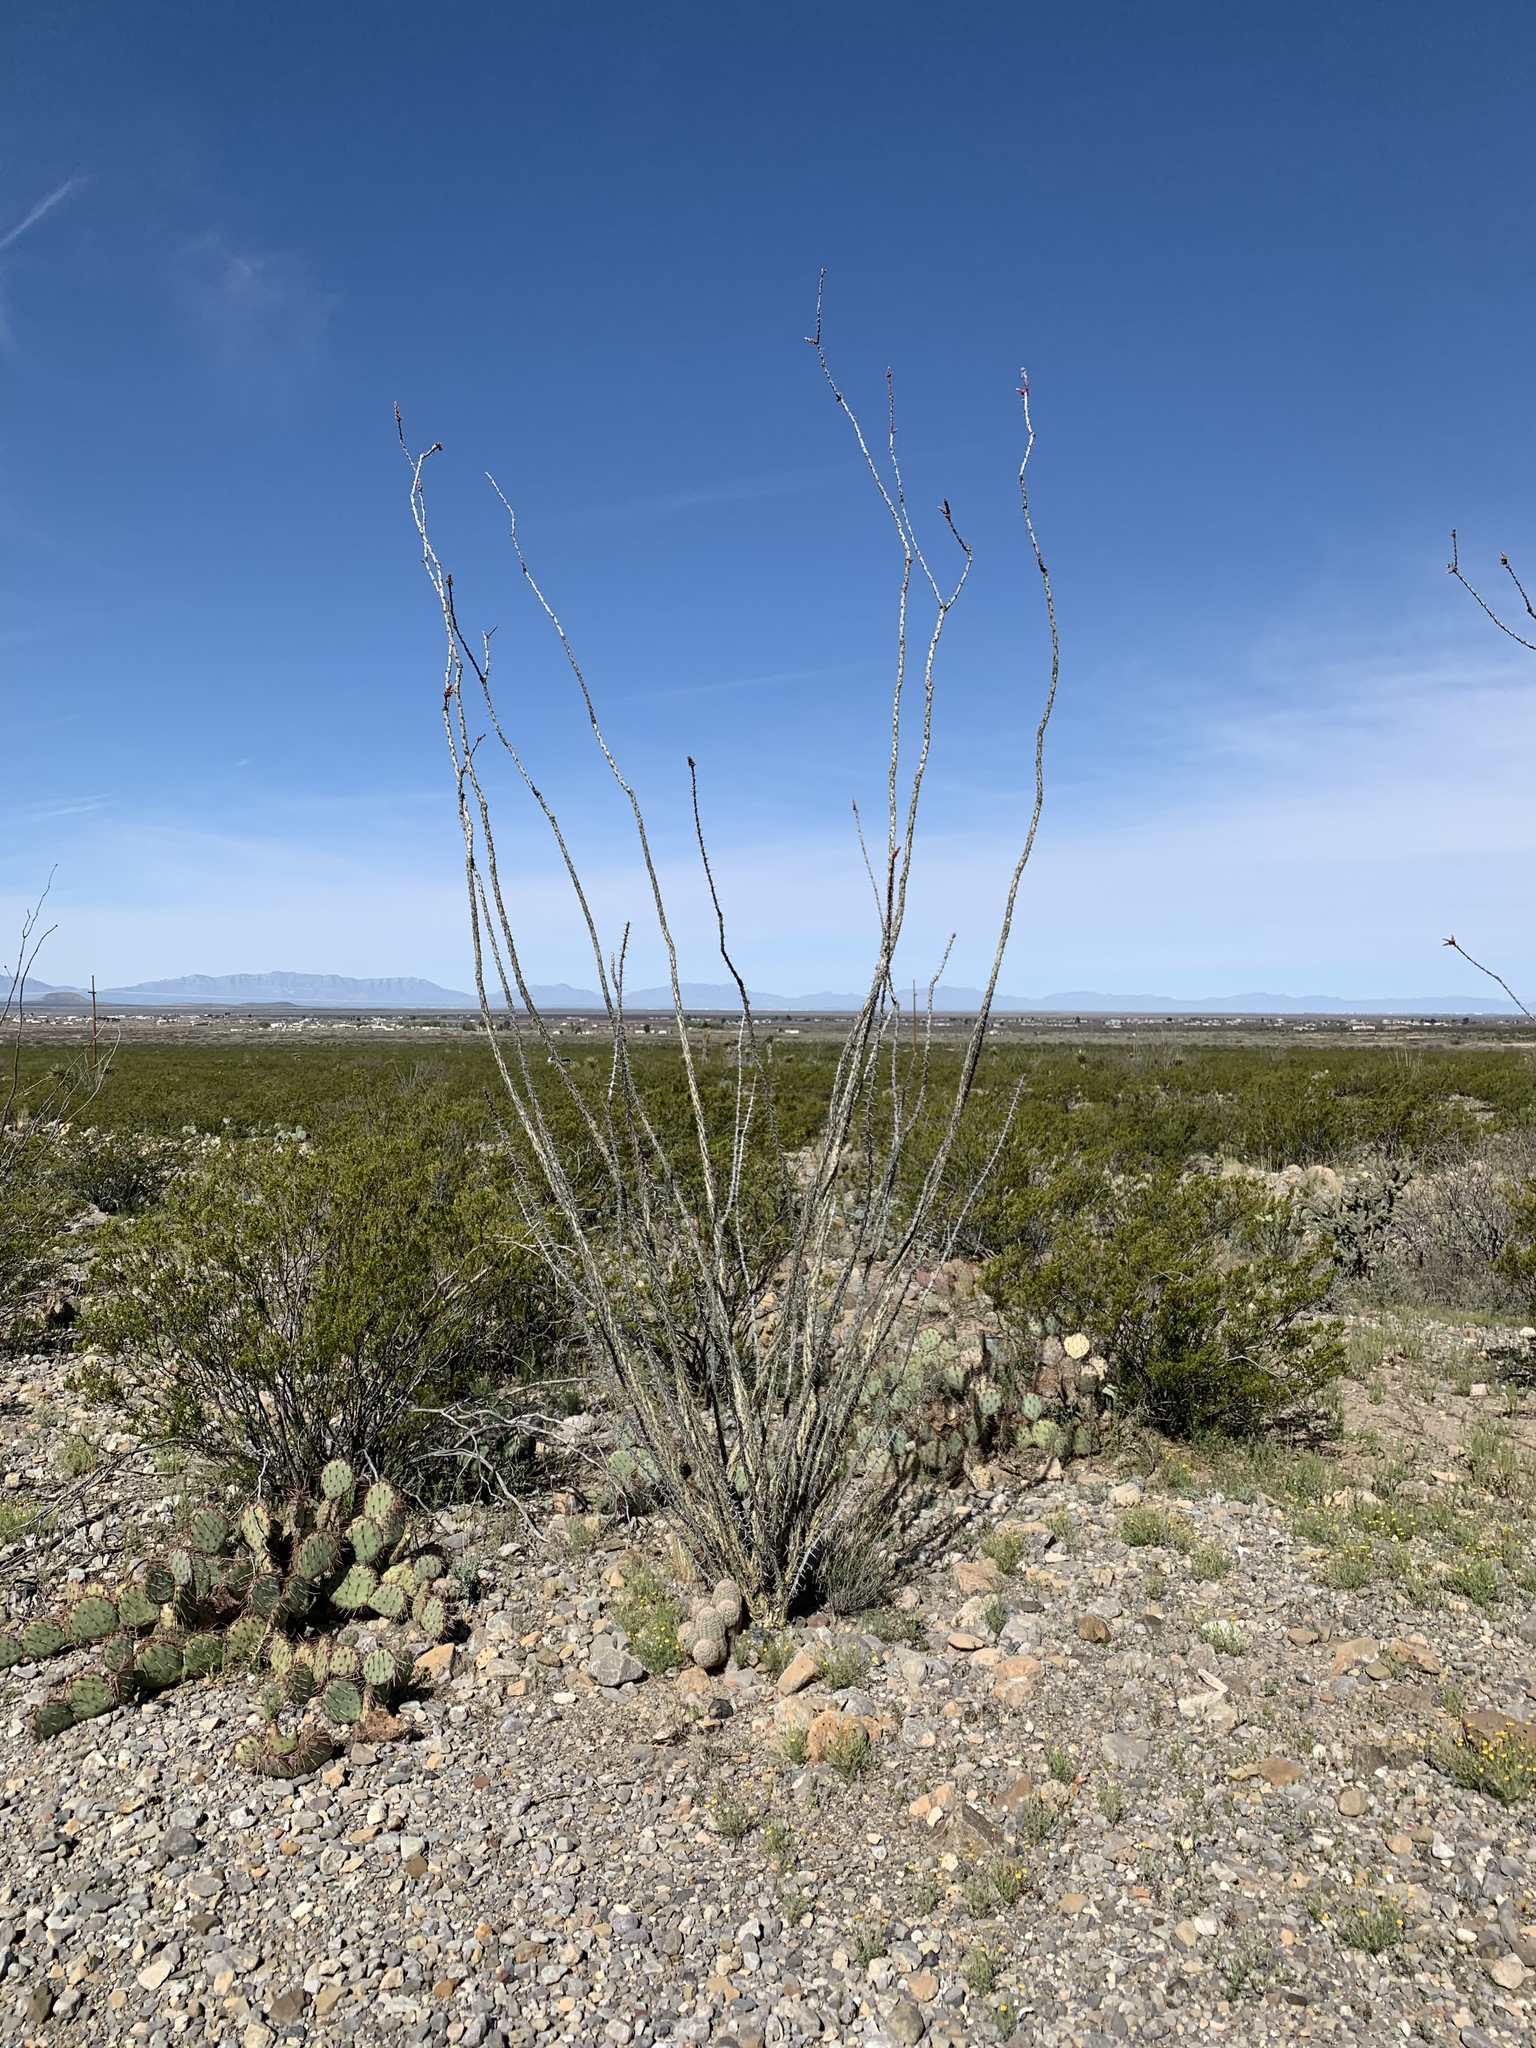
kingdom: Plantae
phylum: Tracheophyta
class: Magnoliopsida
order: Ericales
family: Fouquieriaceae
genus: Fouquieria
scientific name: Fouquieria splendens
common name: Vine-cactus
